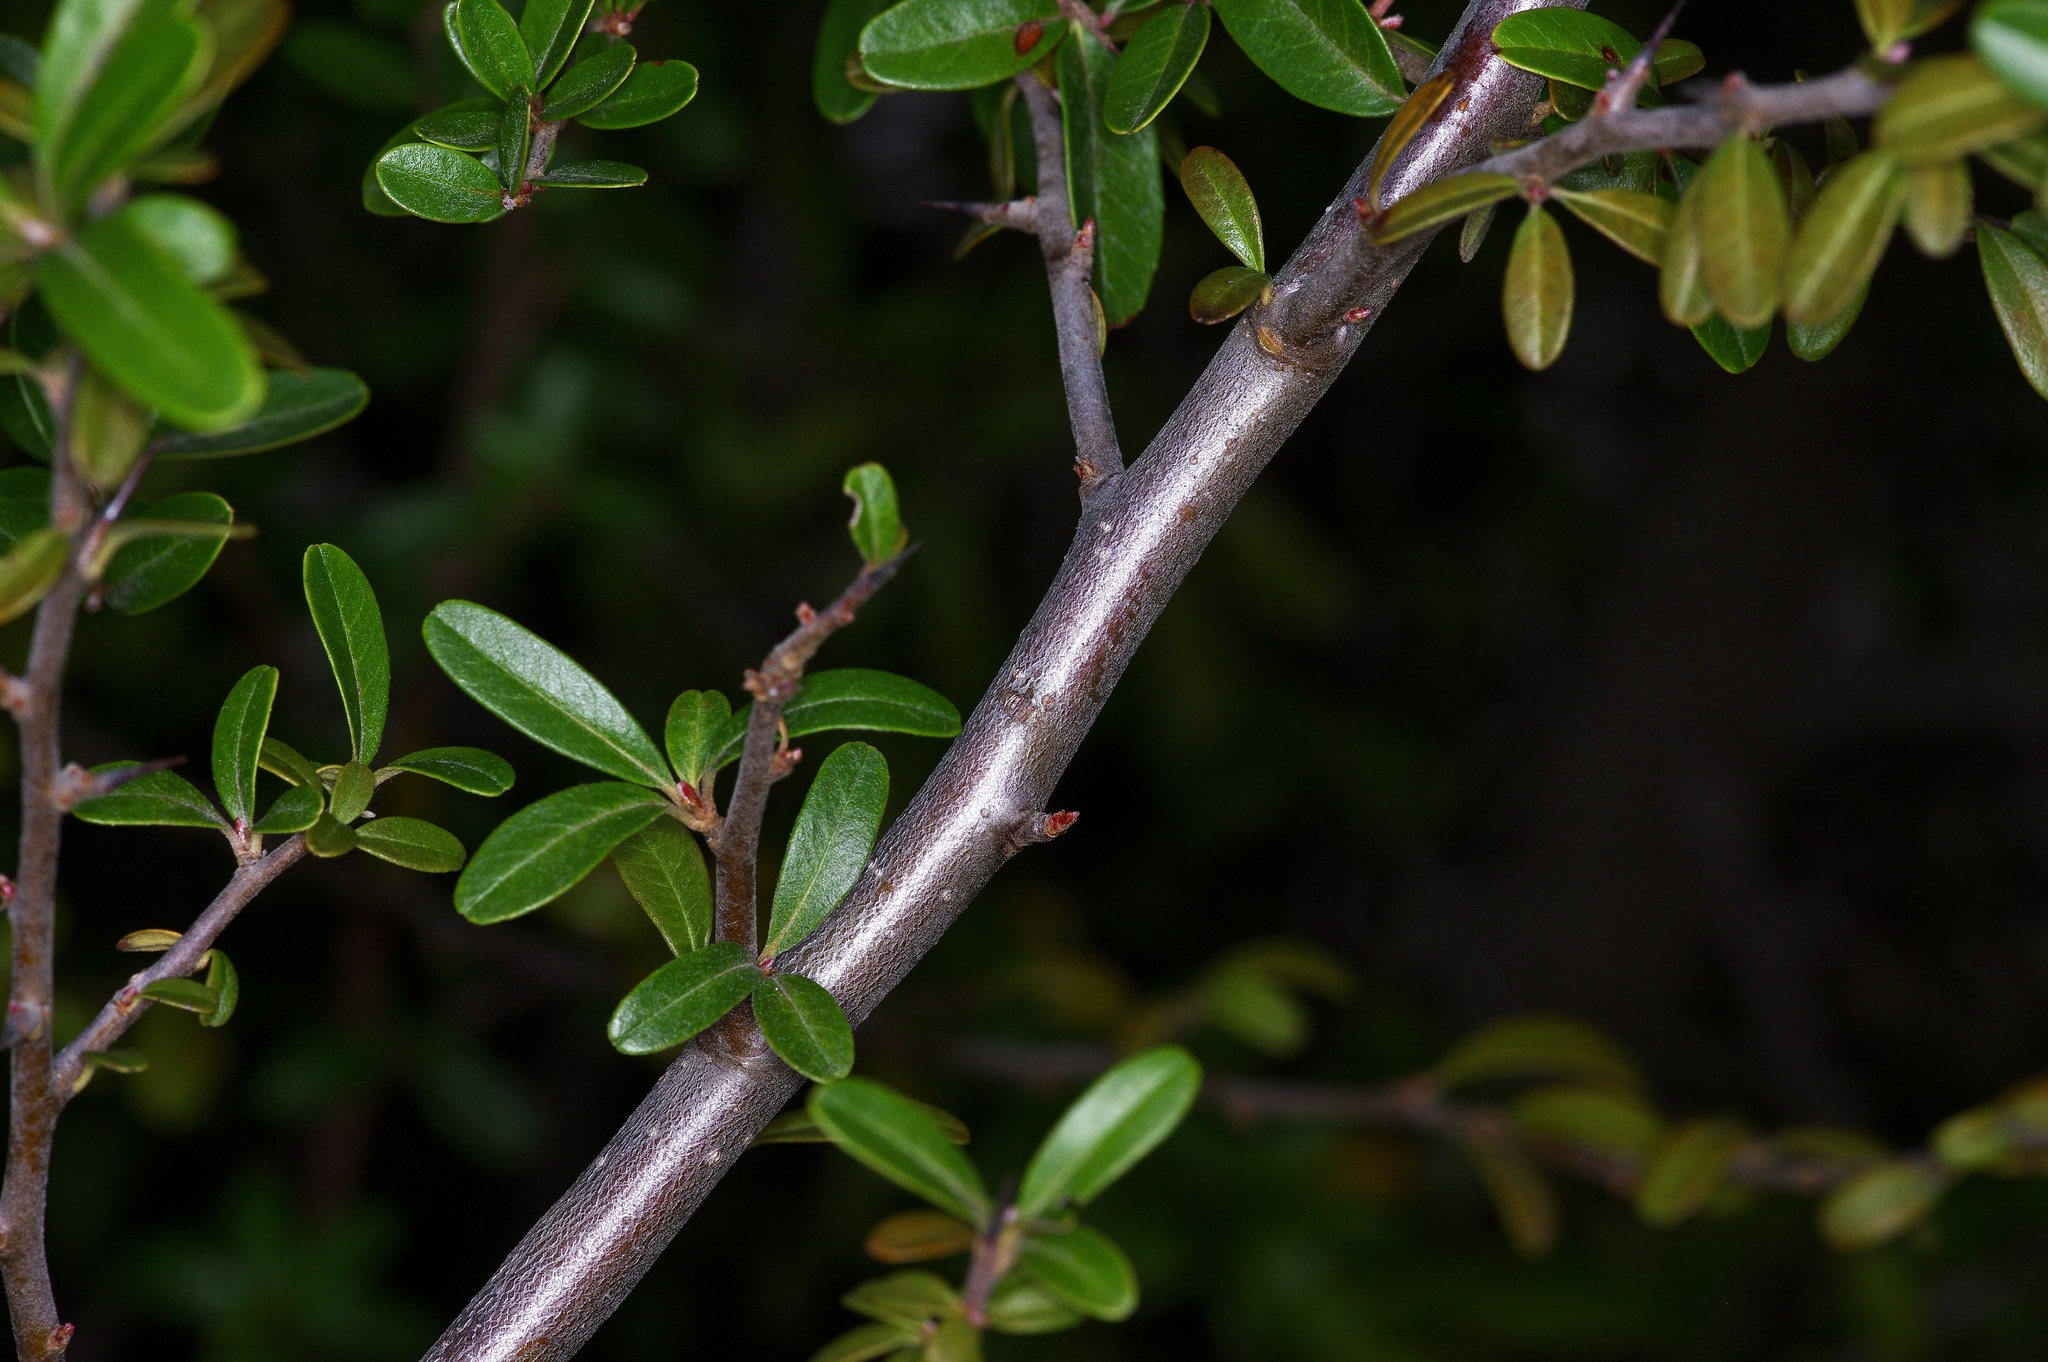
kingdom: Plantae
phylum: Tracheophyta
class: Magnoliopsida
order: Rosales
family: Rosaceae
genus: Pyracantha
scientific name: Pyracantha koidzumii
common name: Formosa firethorn
